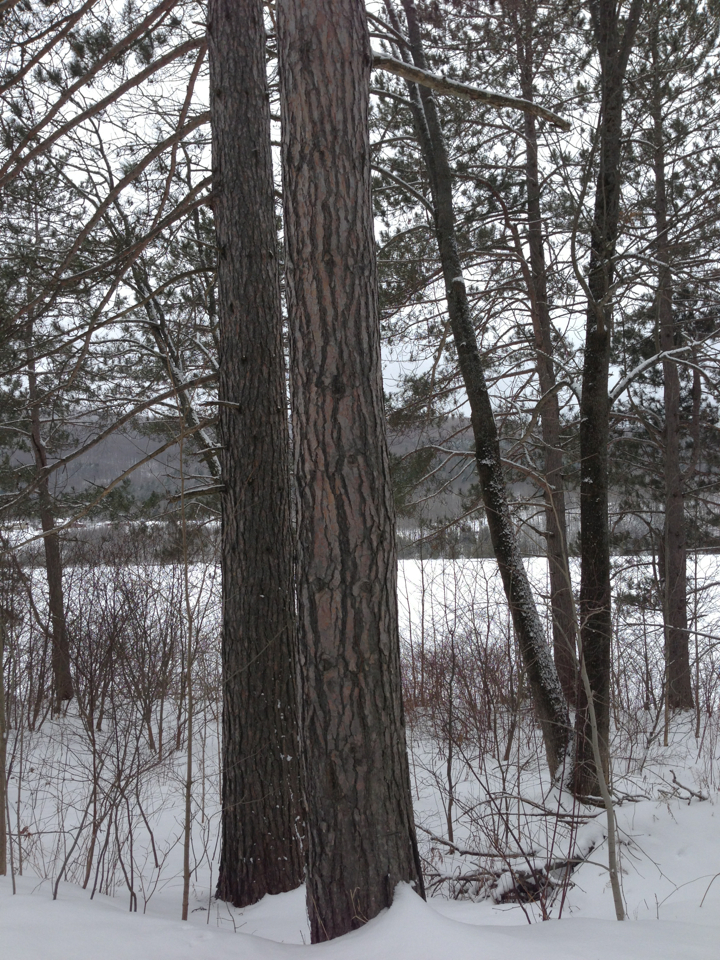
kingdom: Plantae
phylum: Tracheophyta
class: Pinopsida
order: Pinales
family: Pinaceae
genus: Pinus
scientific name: Pinus resinosa
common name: Norway pine
